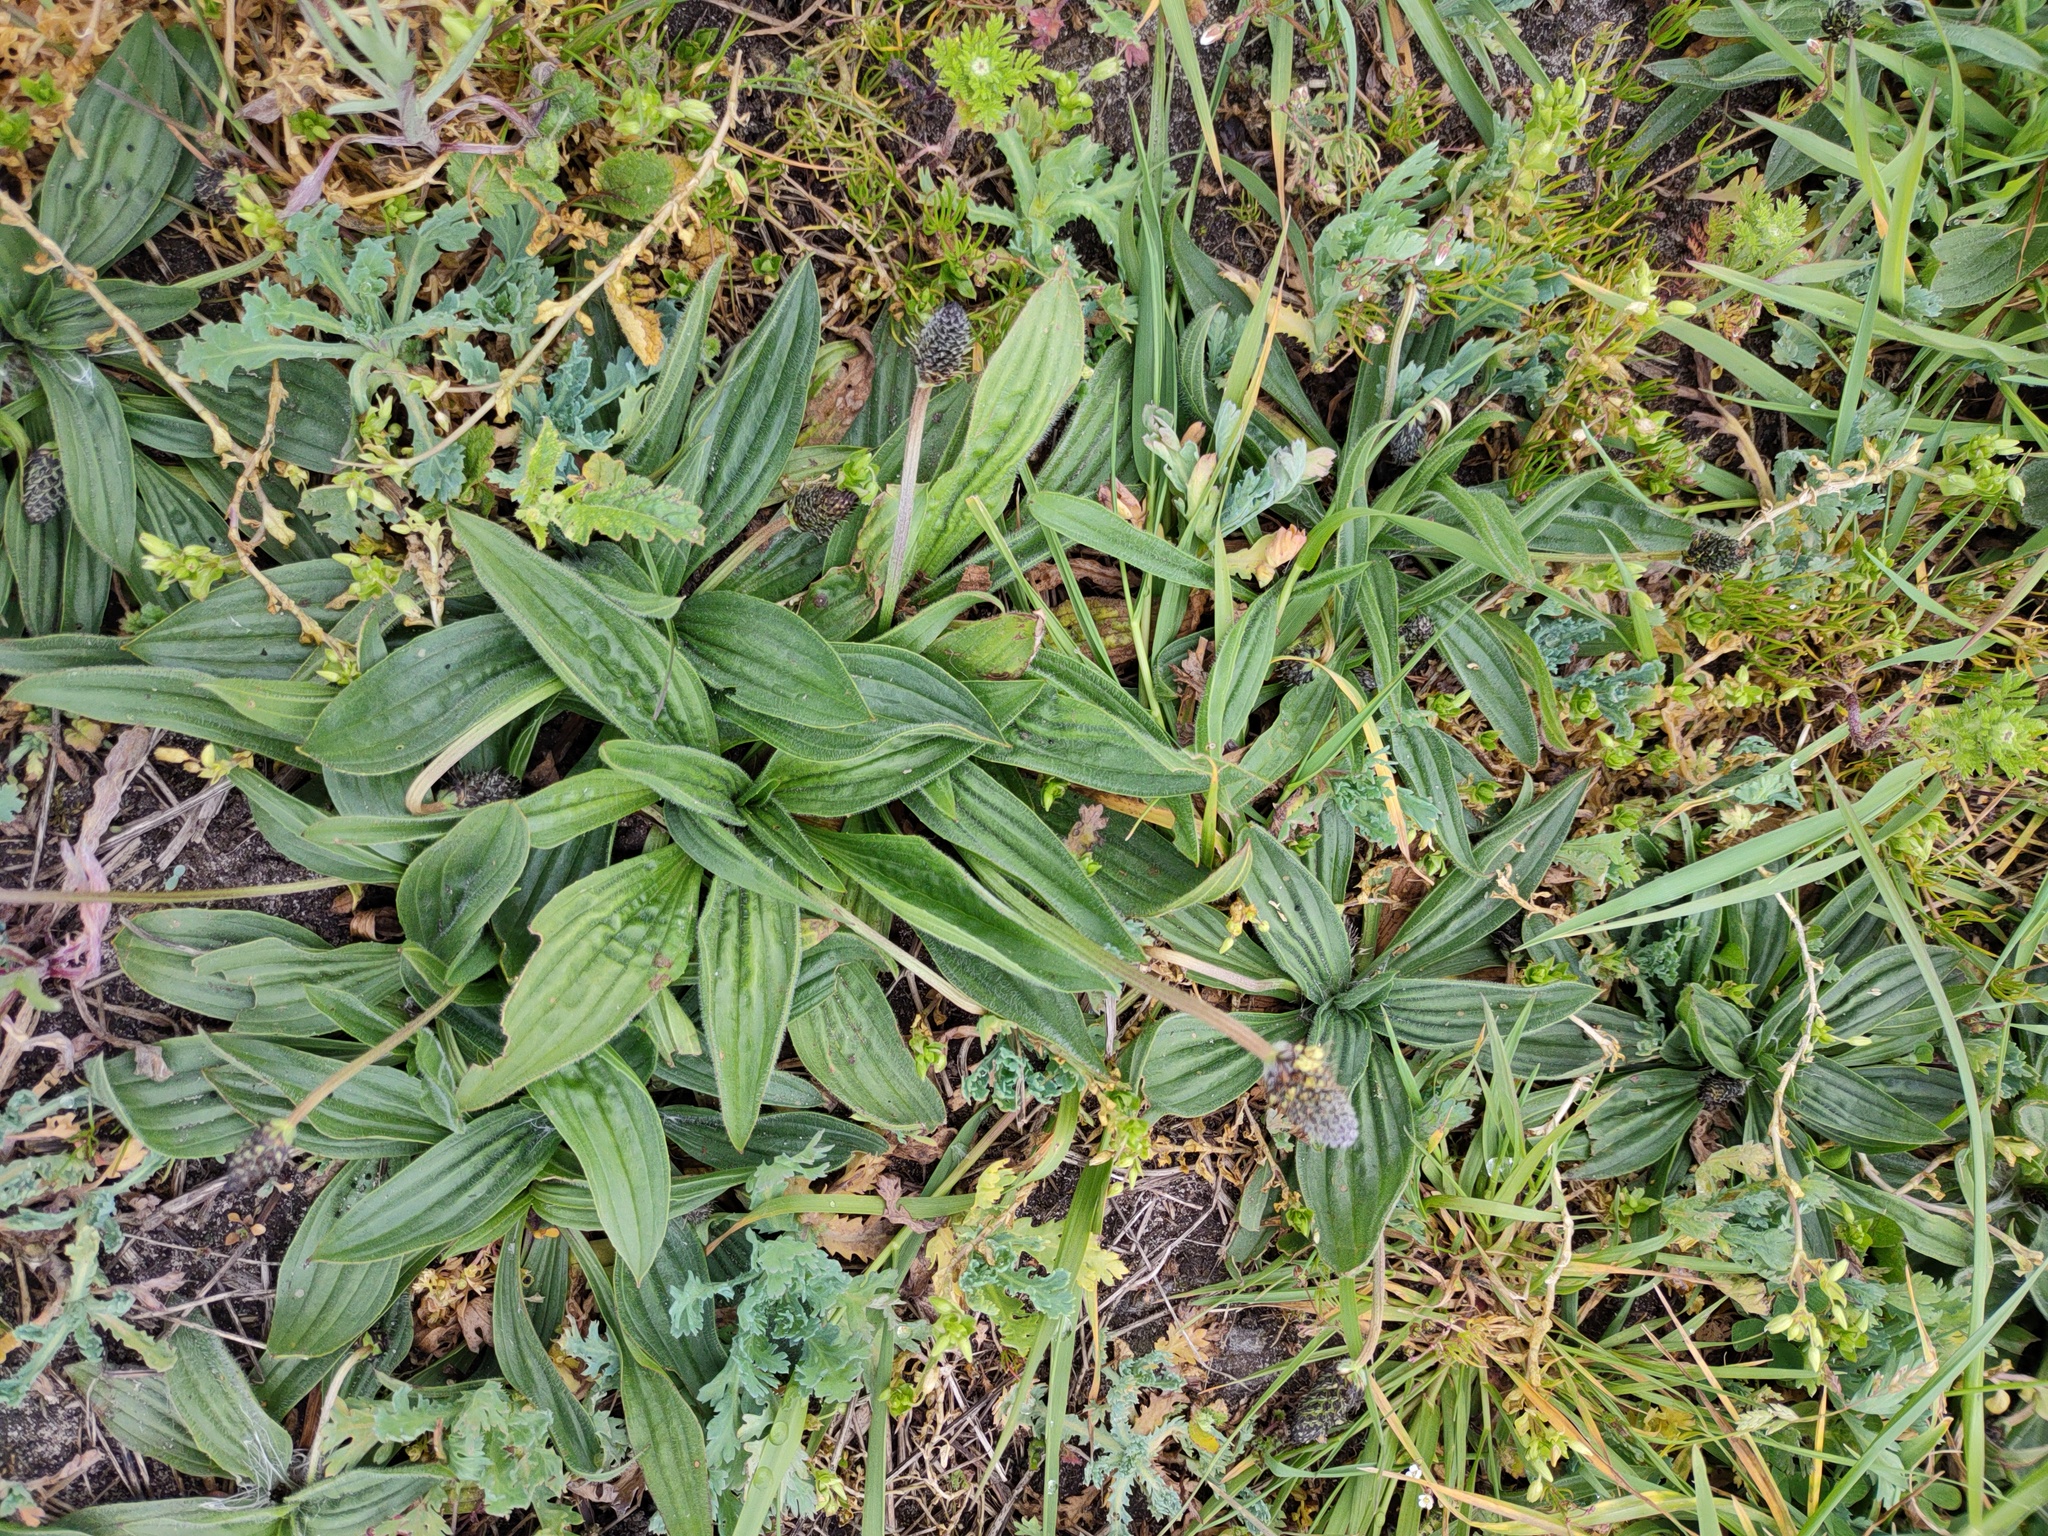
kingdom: Plantae
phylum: Tracheophyta
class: Magnoliopsida
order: Lamiales
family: Plantaginaceae
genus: Plantago
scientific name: Plantago lanceolata
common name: Ribwort plantain
